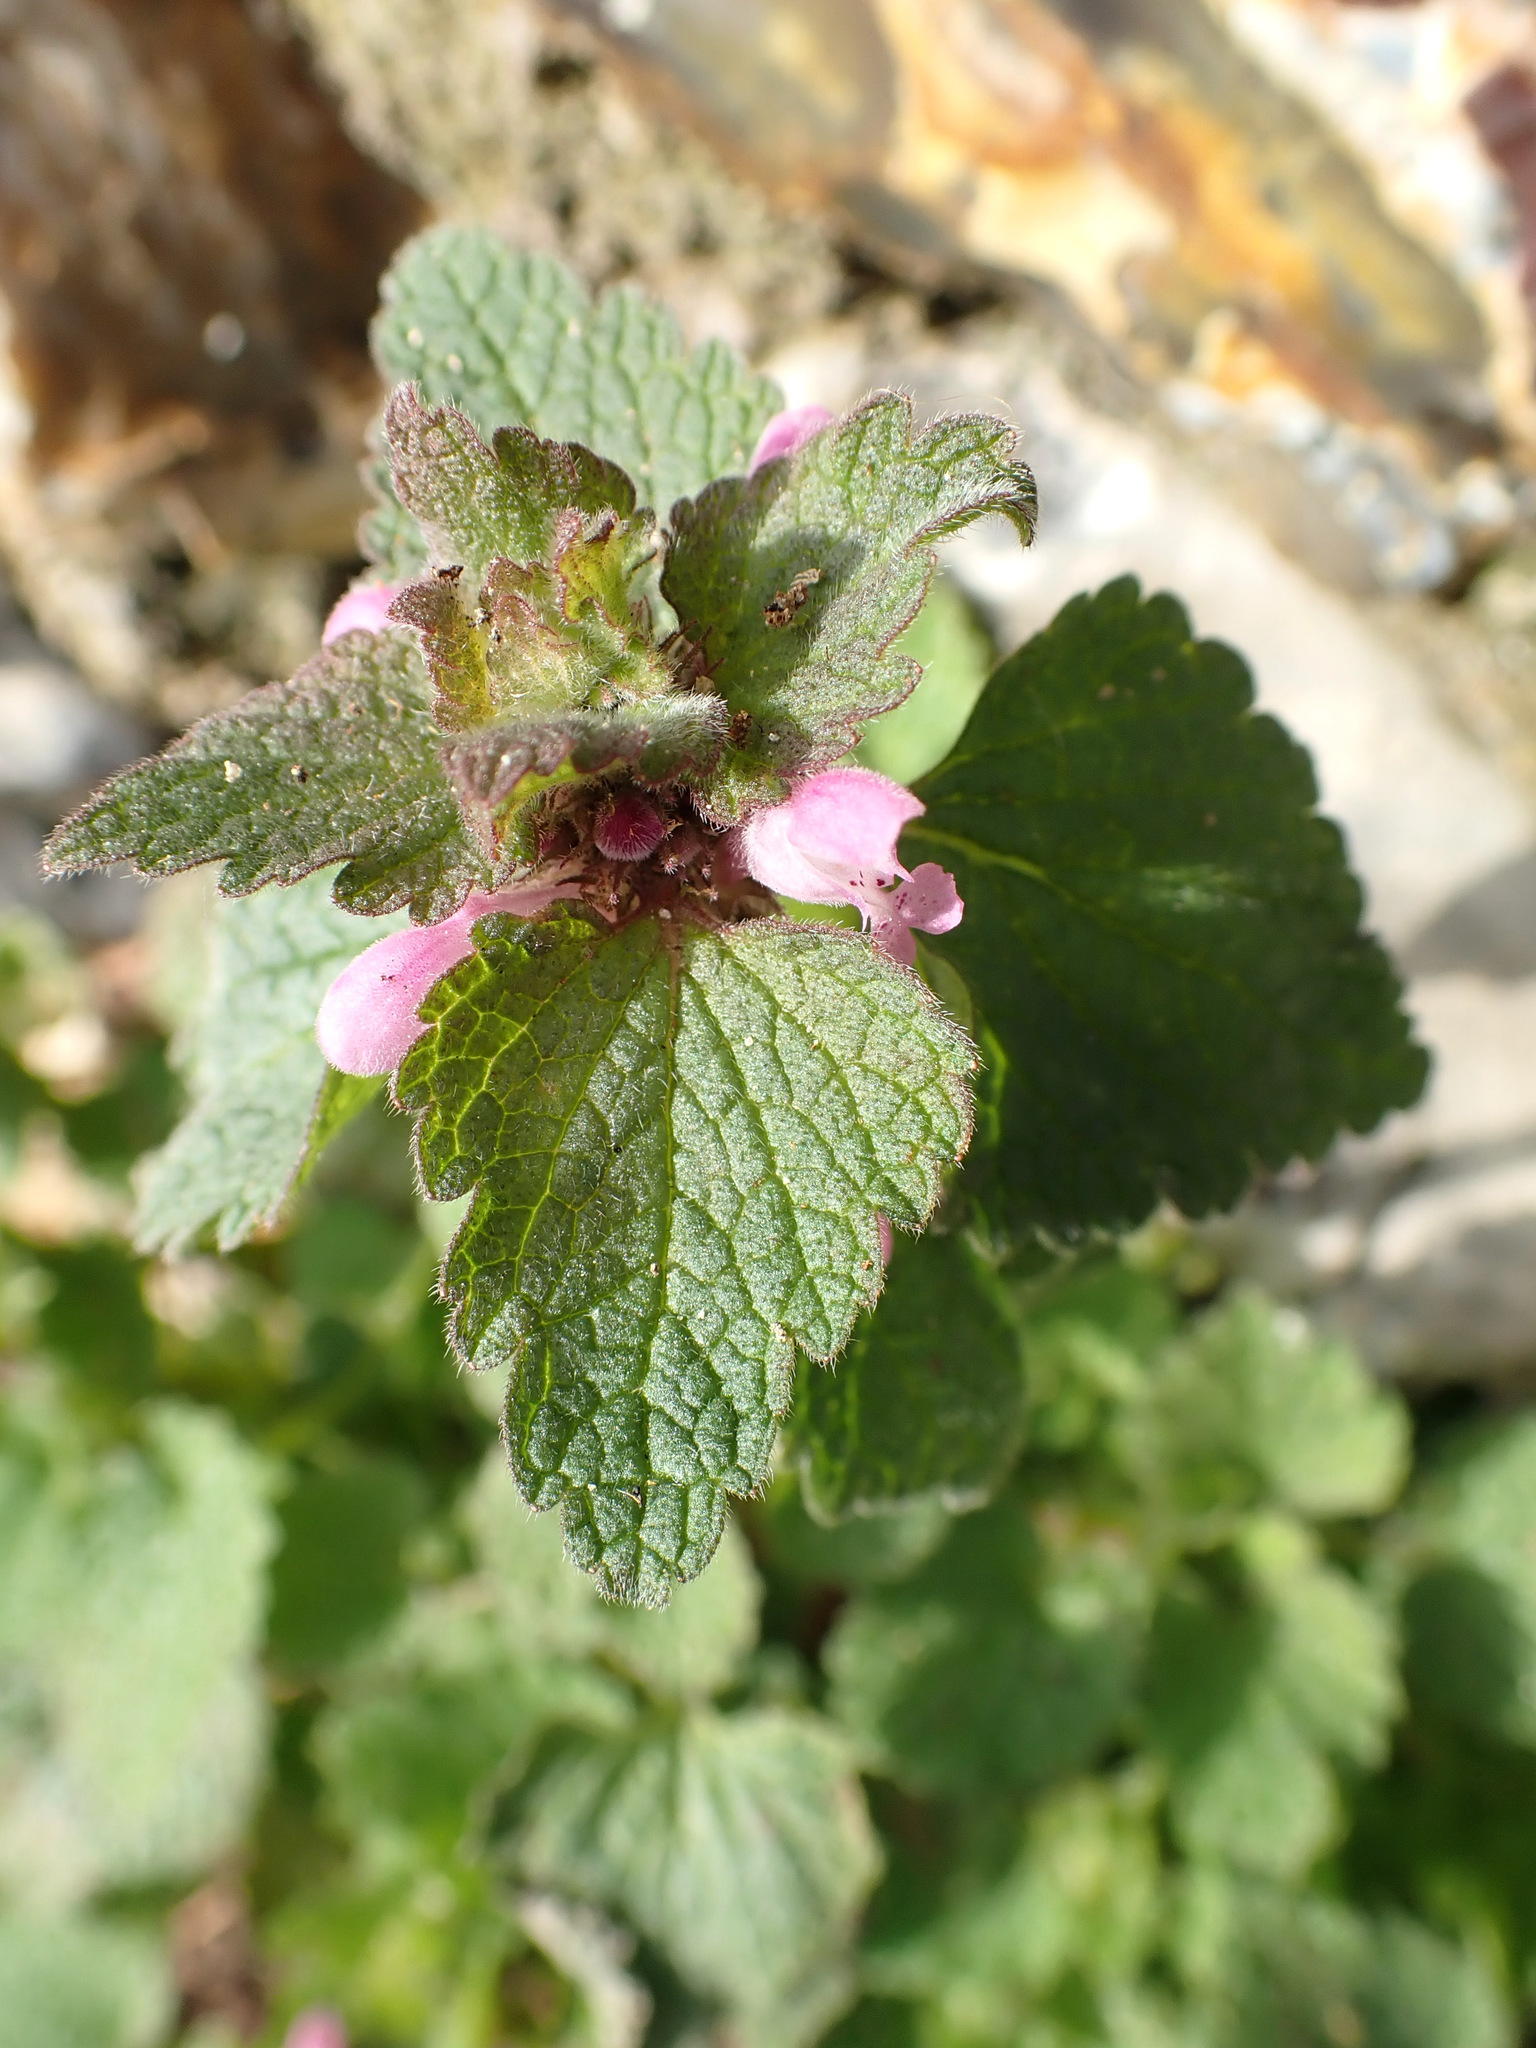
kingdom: Plantae
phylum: Tracheophyta
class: Magnoliopsida
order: Lamiales
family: Lamiaceae
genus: Lamium
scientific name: Lamium purpureum
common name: Red dead-nettle
